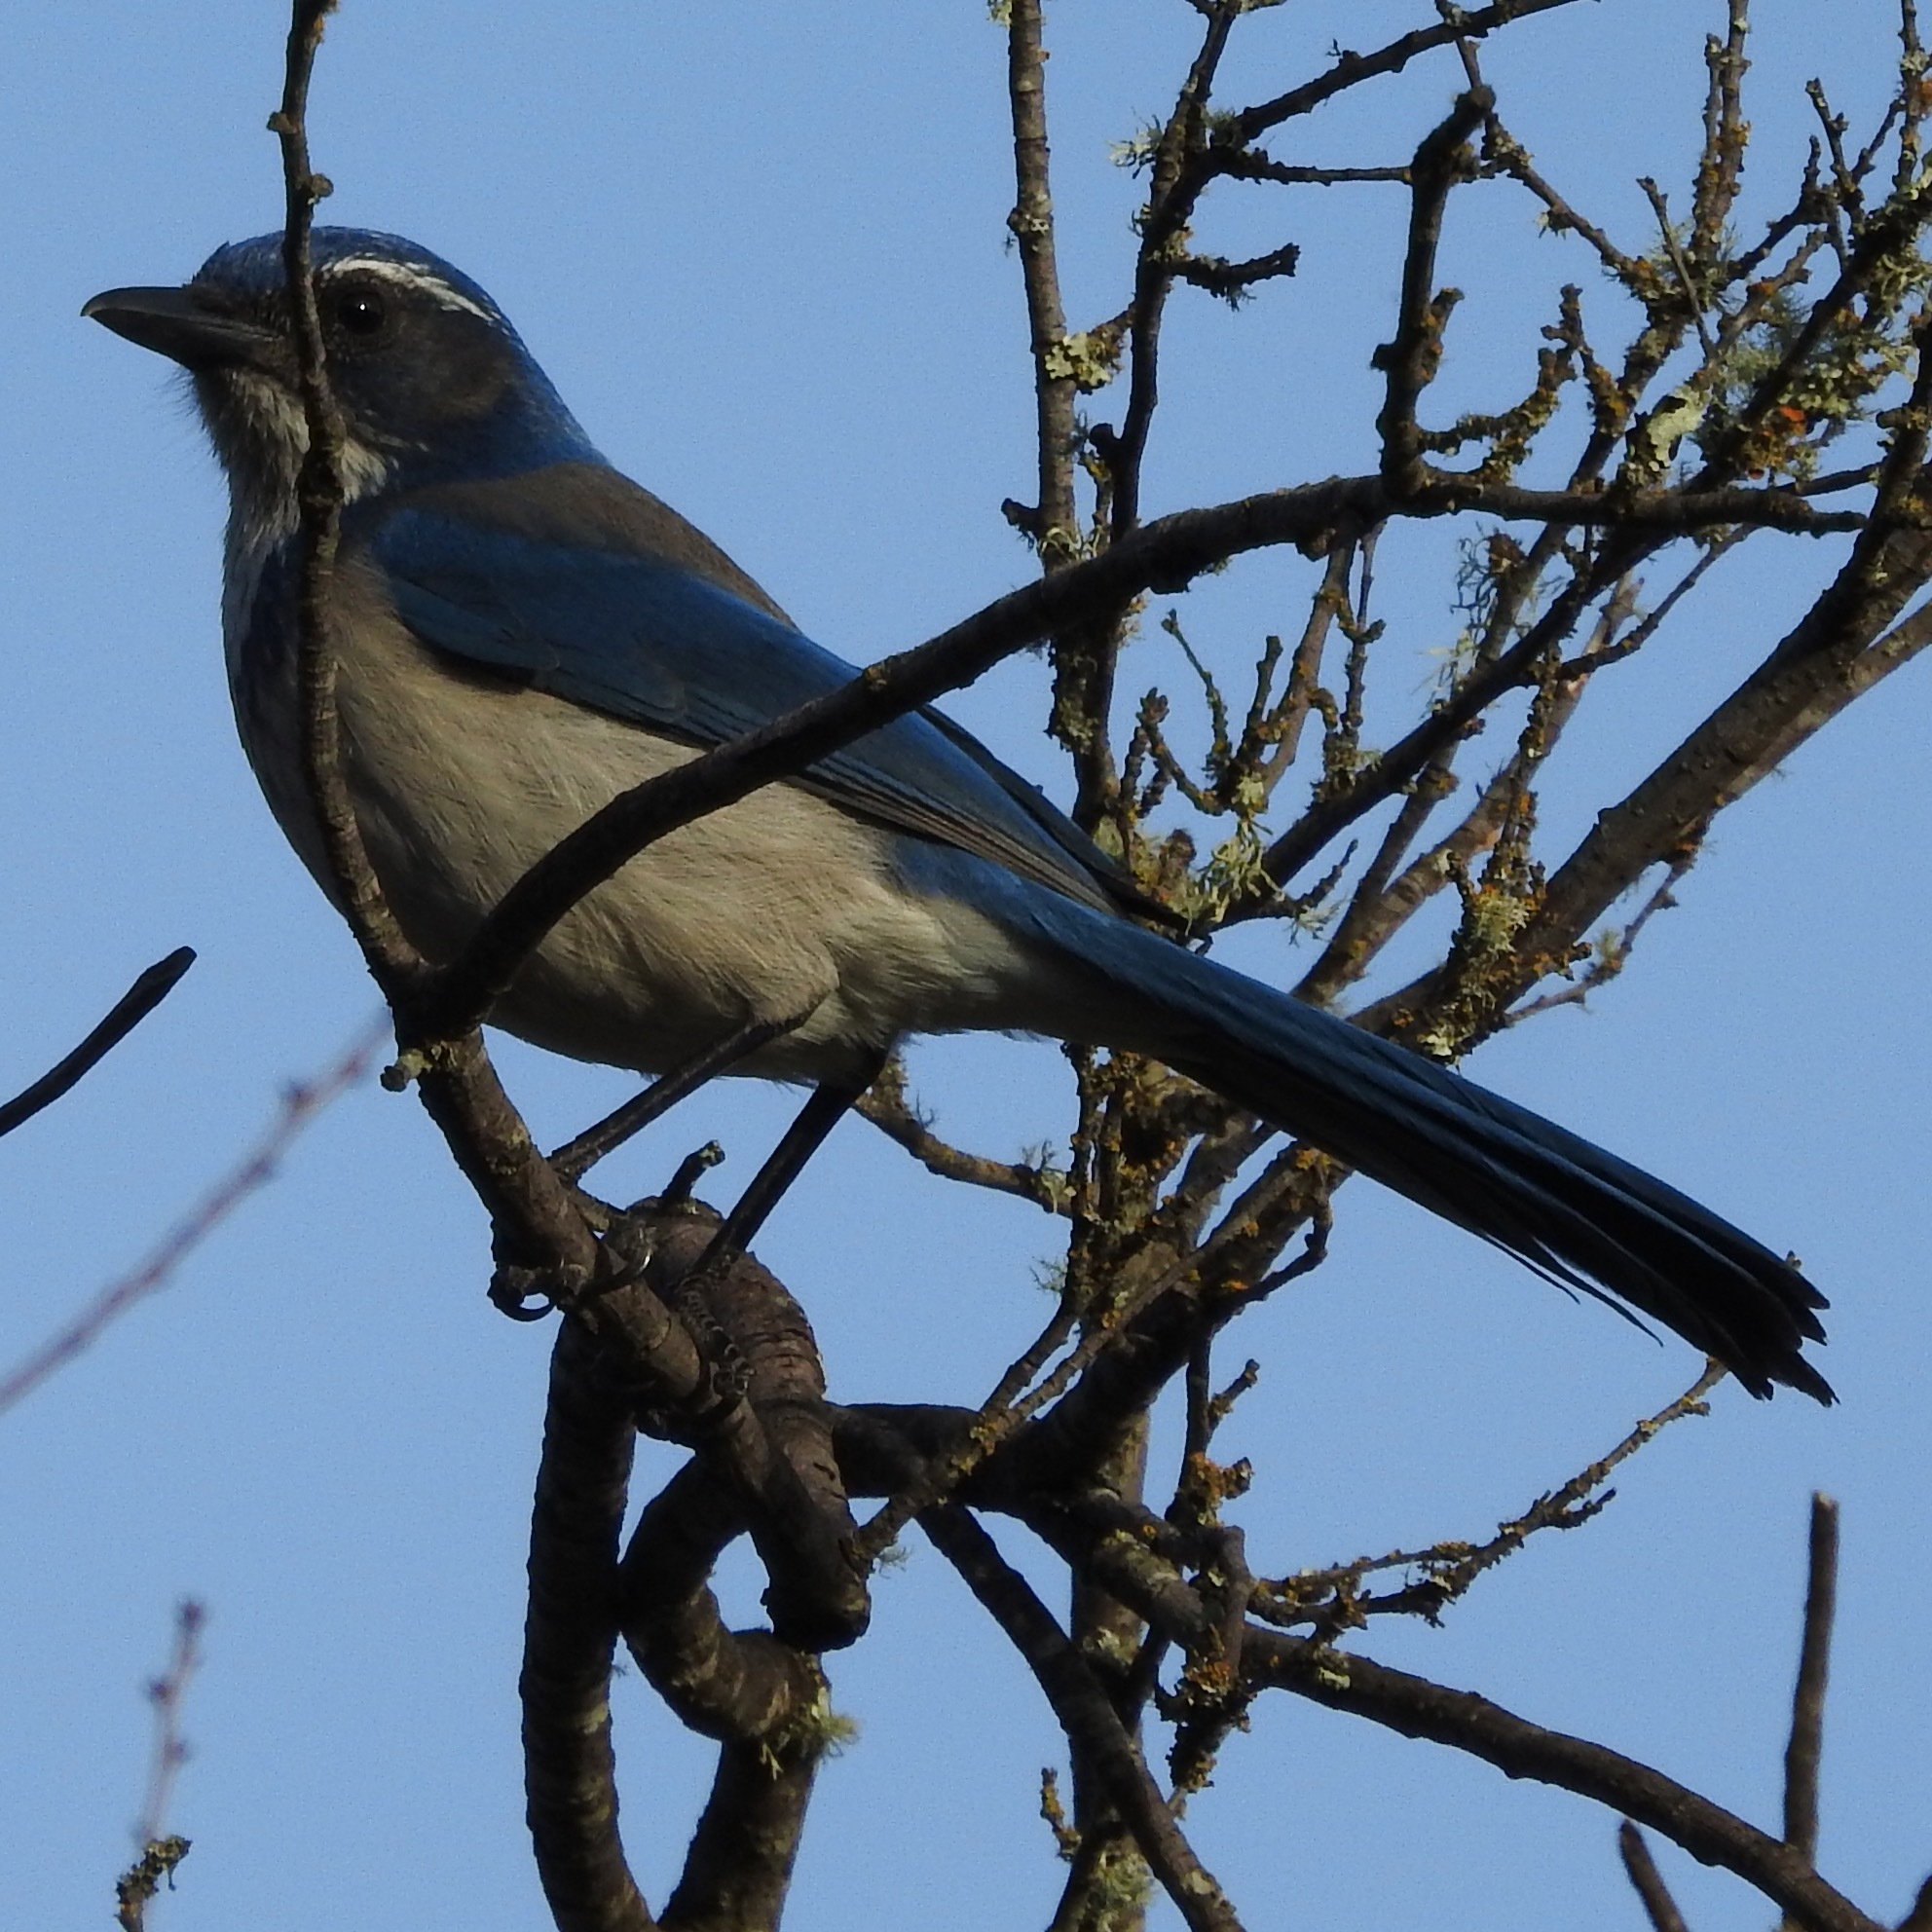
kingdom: Animalia
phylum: Chordata
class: Aves
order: Passeriformes
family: Corvidae
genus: Aphelocoma
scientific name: Aphelocoma californica
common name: California scrub-jay
